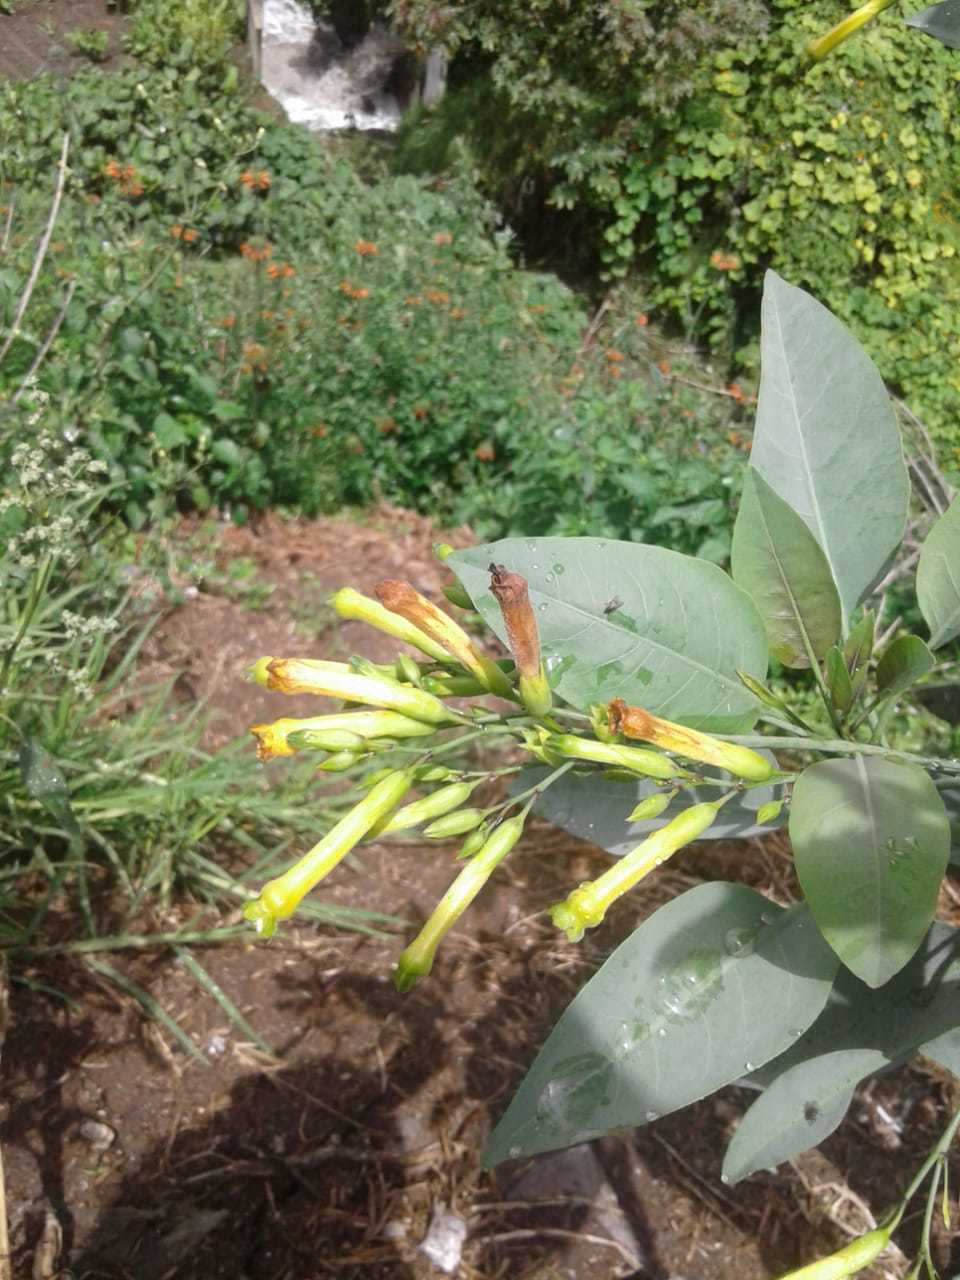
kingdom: Plantae
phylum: Tracheophyta
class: Magnoliopsida
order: Solanales
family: Solanaceae
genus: Nicotiana
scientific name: Nicotiana glauca
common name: Tree tobacco
